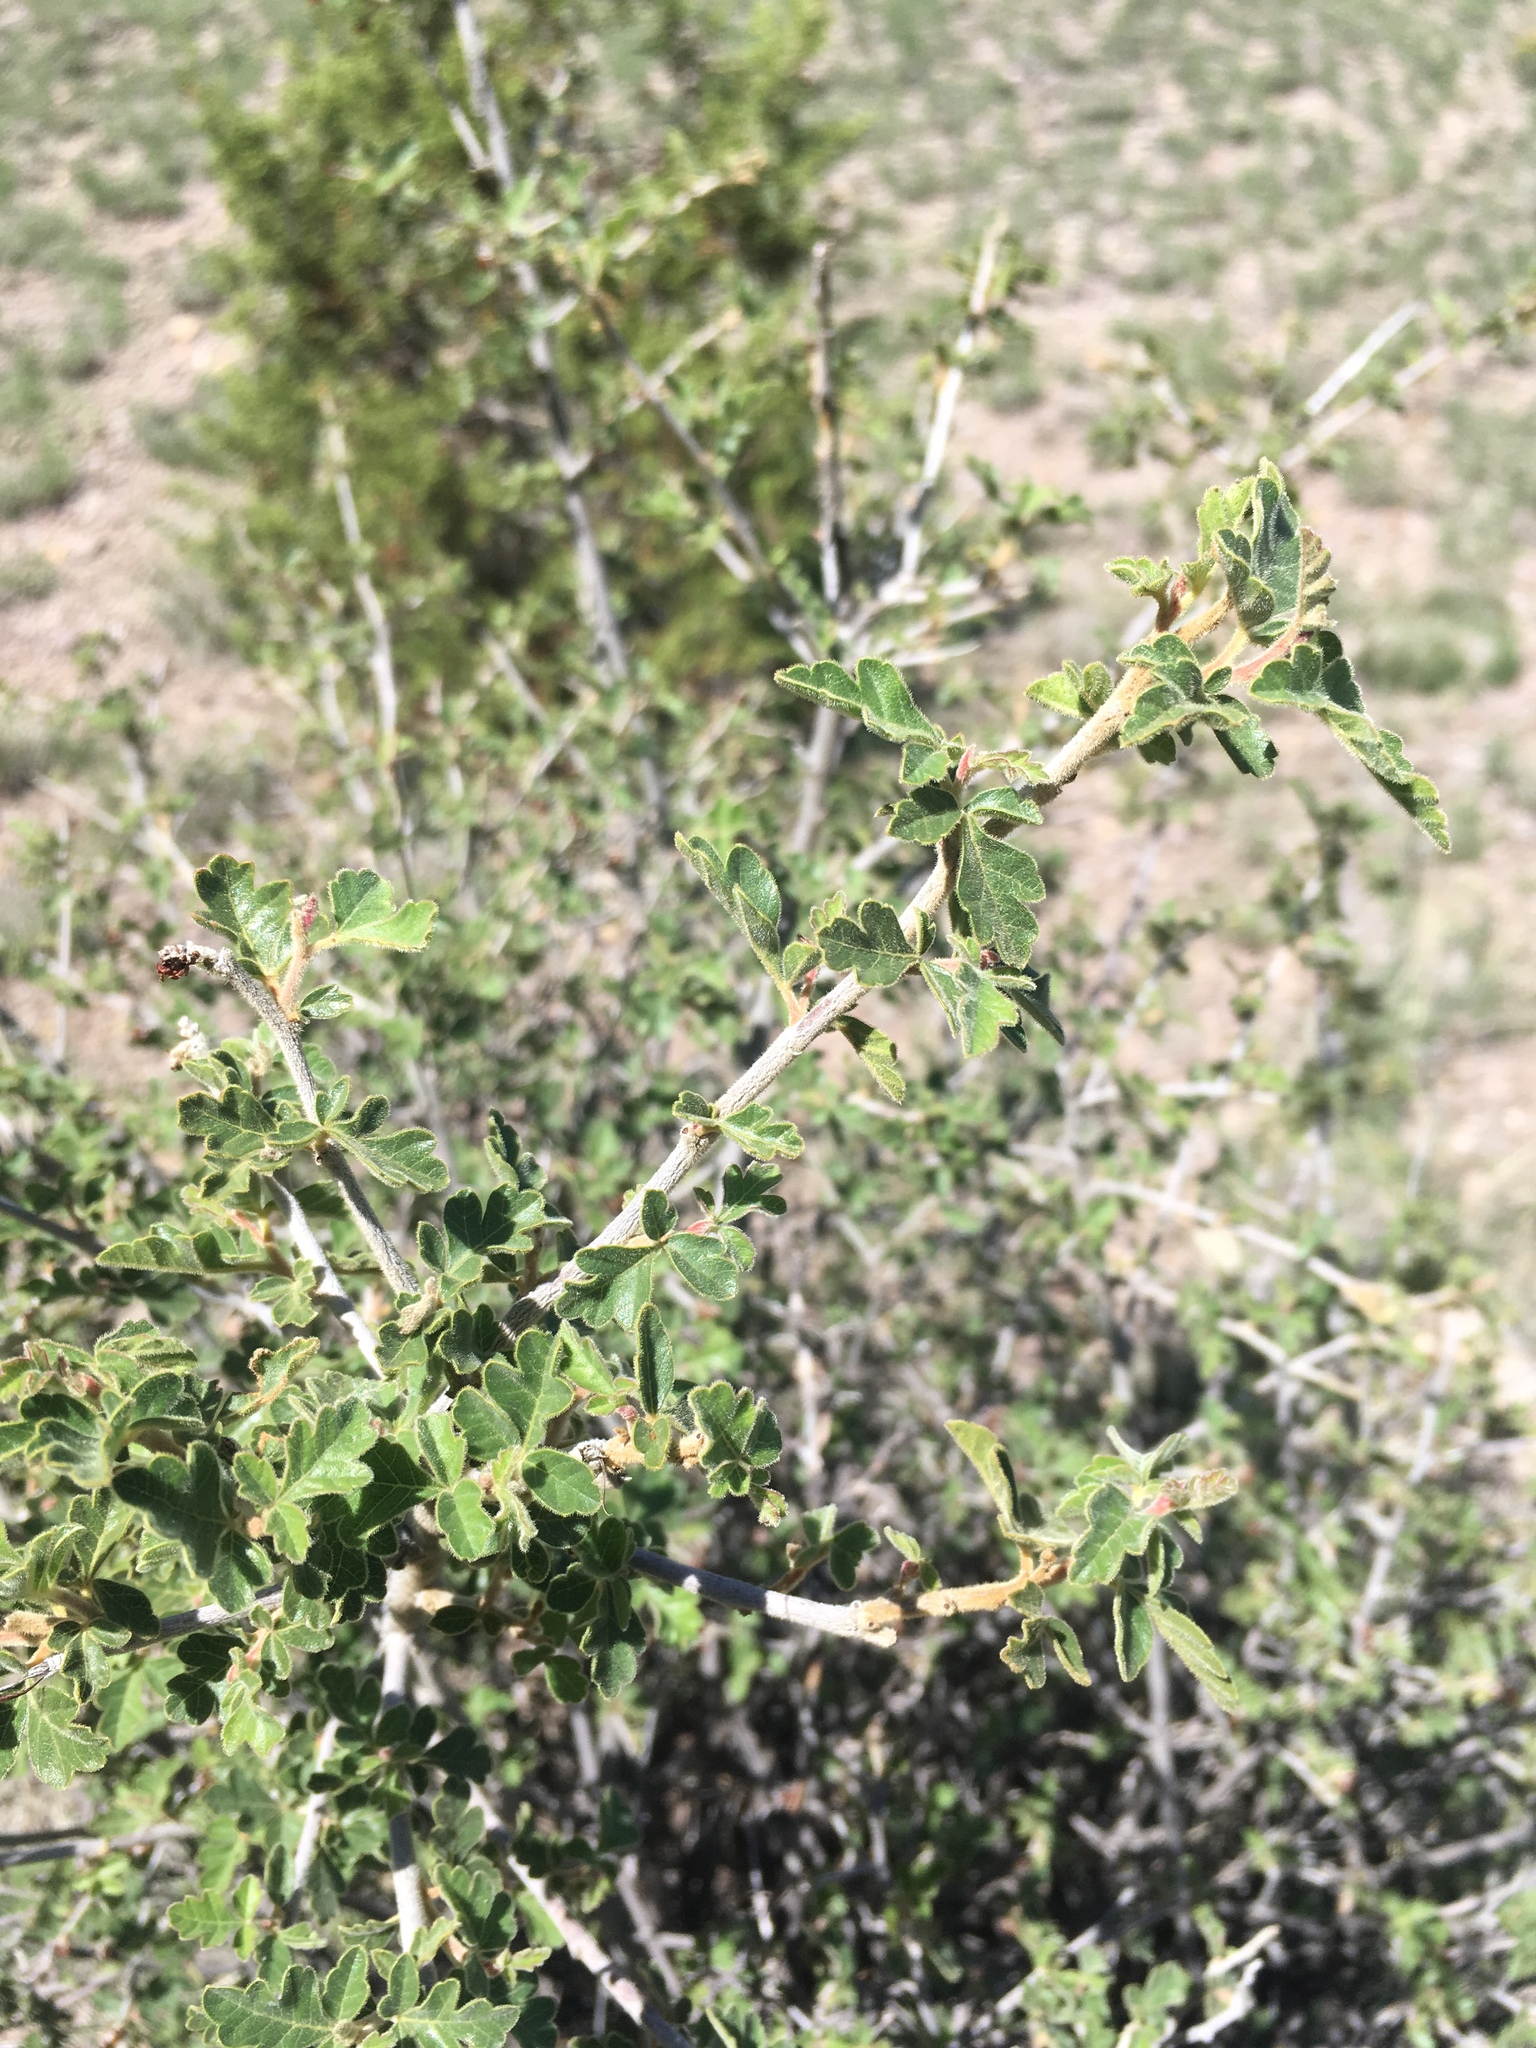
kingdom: Plantae
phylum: Tracheophyta
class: Magnoliopsida
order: Sapindales
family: Anacardiaceae
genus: Rhus
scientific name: Rhus aromatica
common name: Aromatic sumac
